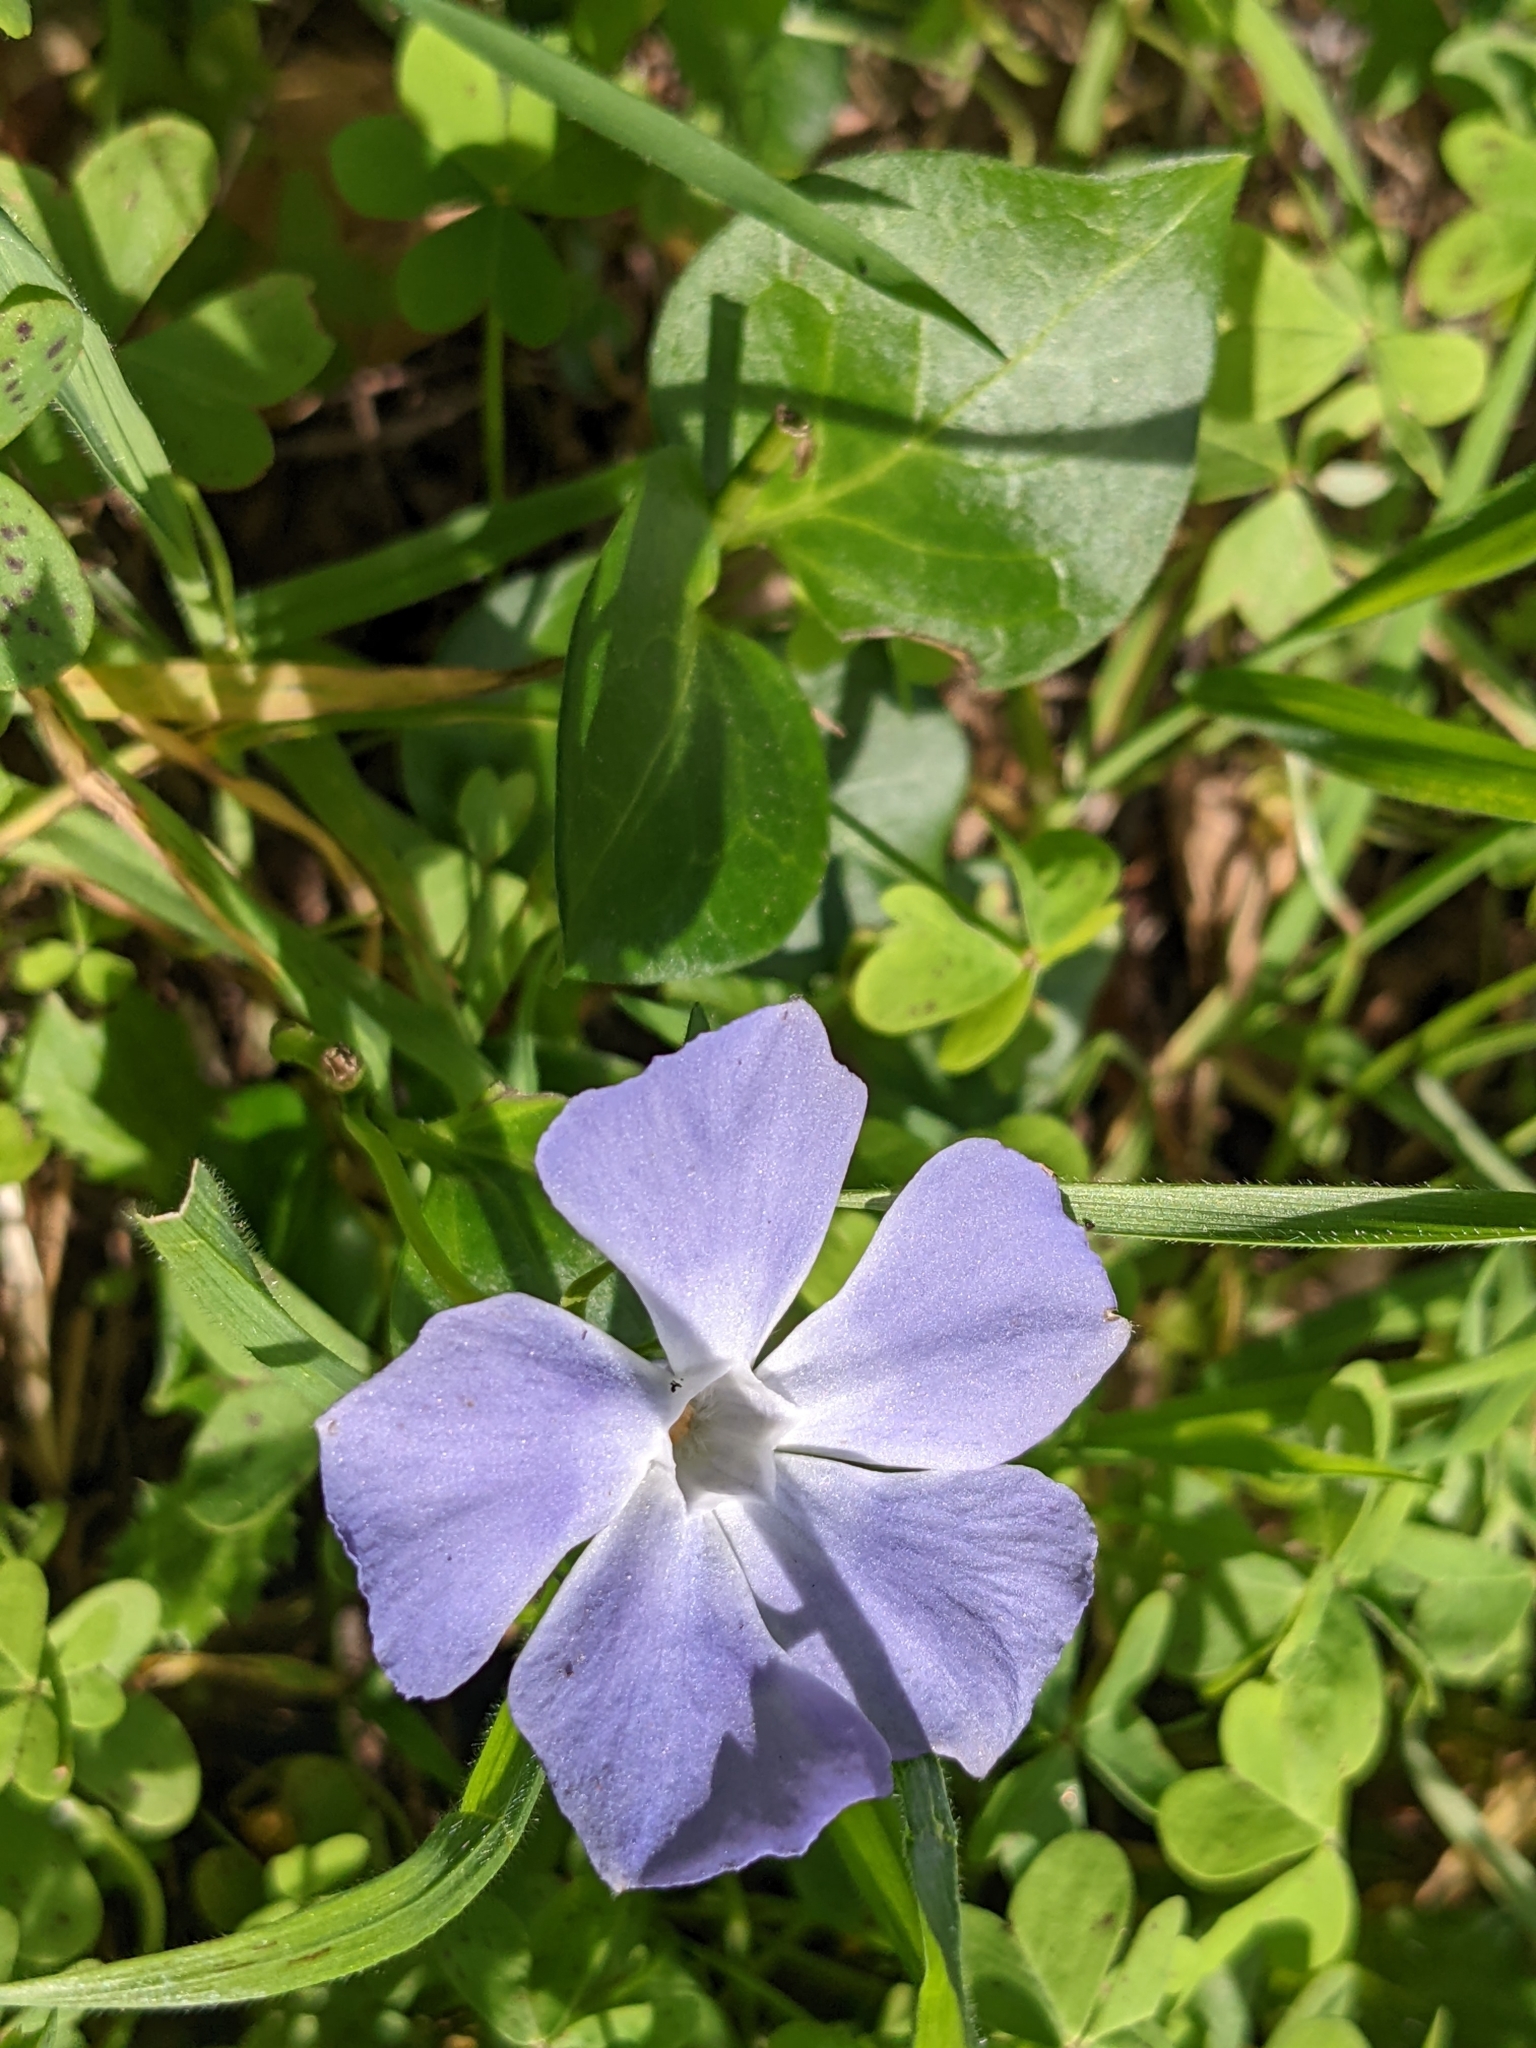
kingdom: Plantae
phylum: Tracheophyta
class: Magnoliopsida
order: Gentianales
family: Apocynaceae
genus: Vinca
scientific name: Vinca major
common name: Greater periwinkle
